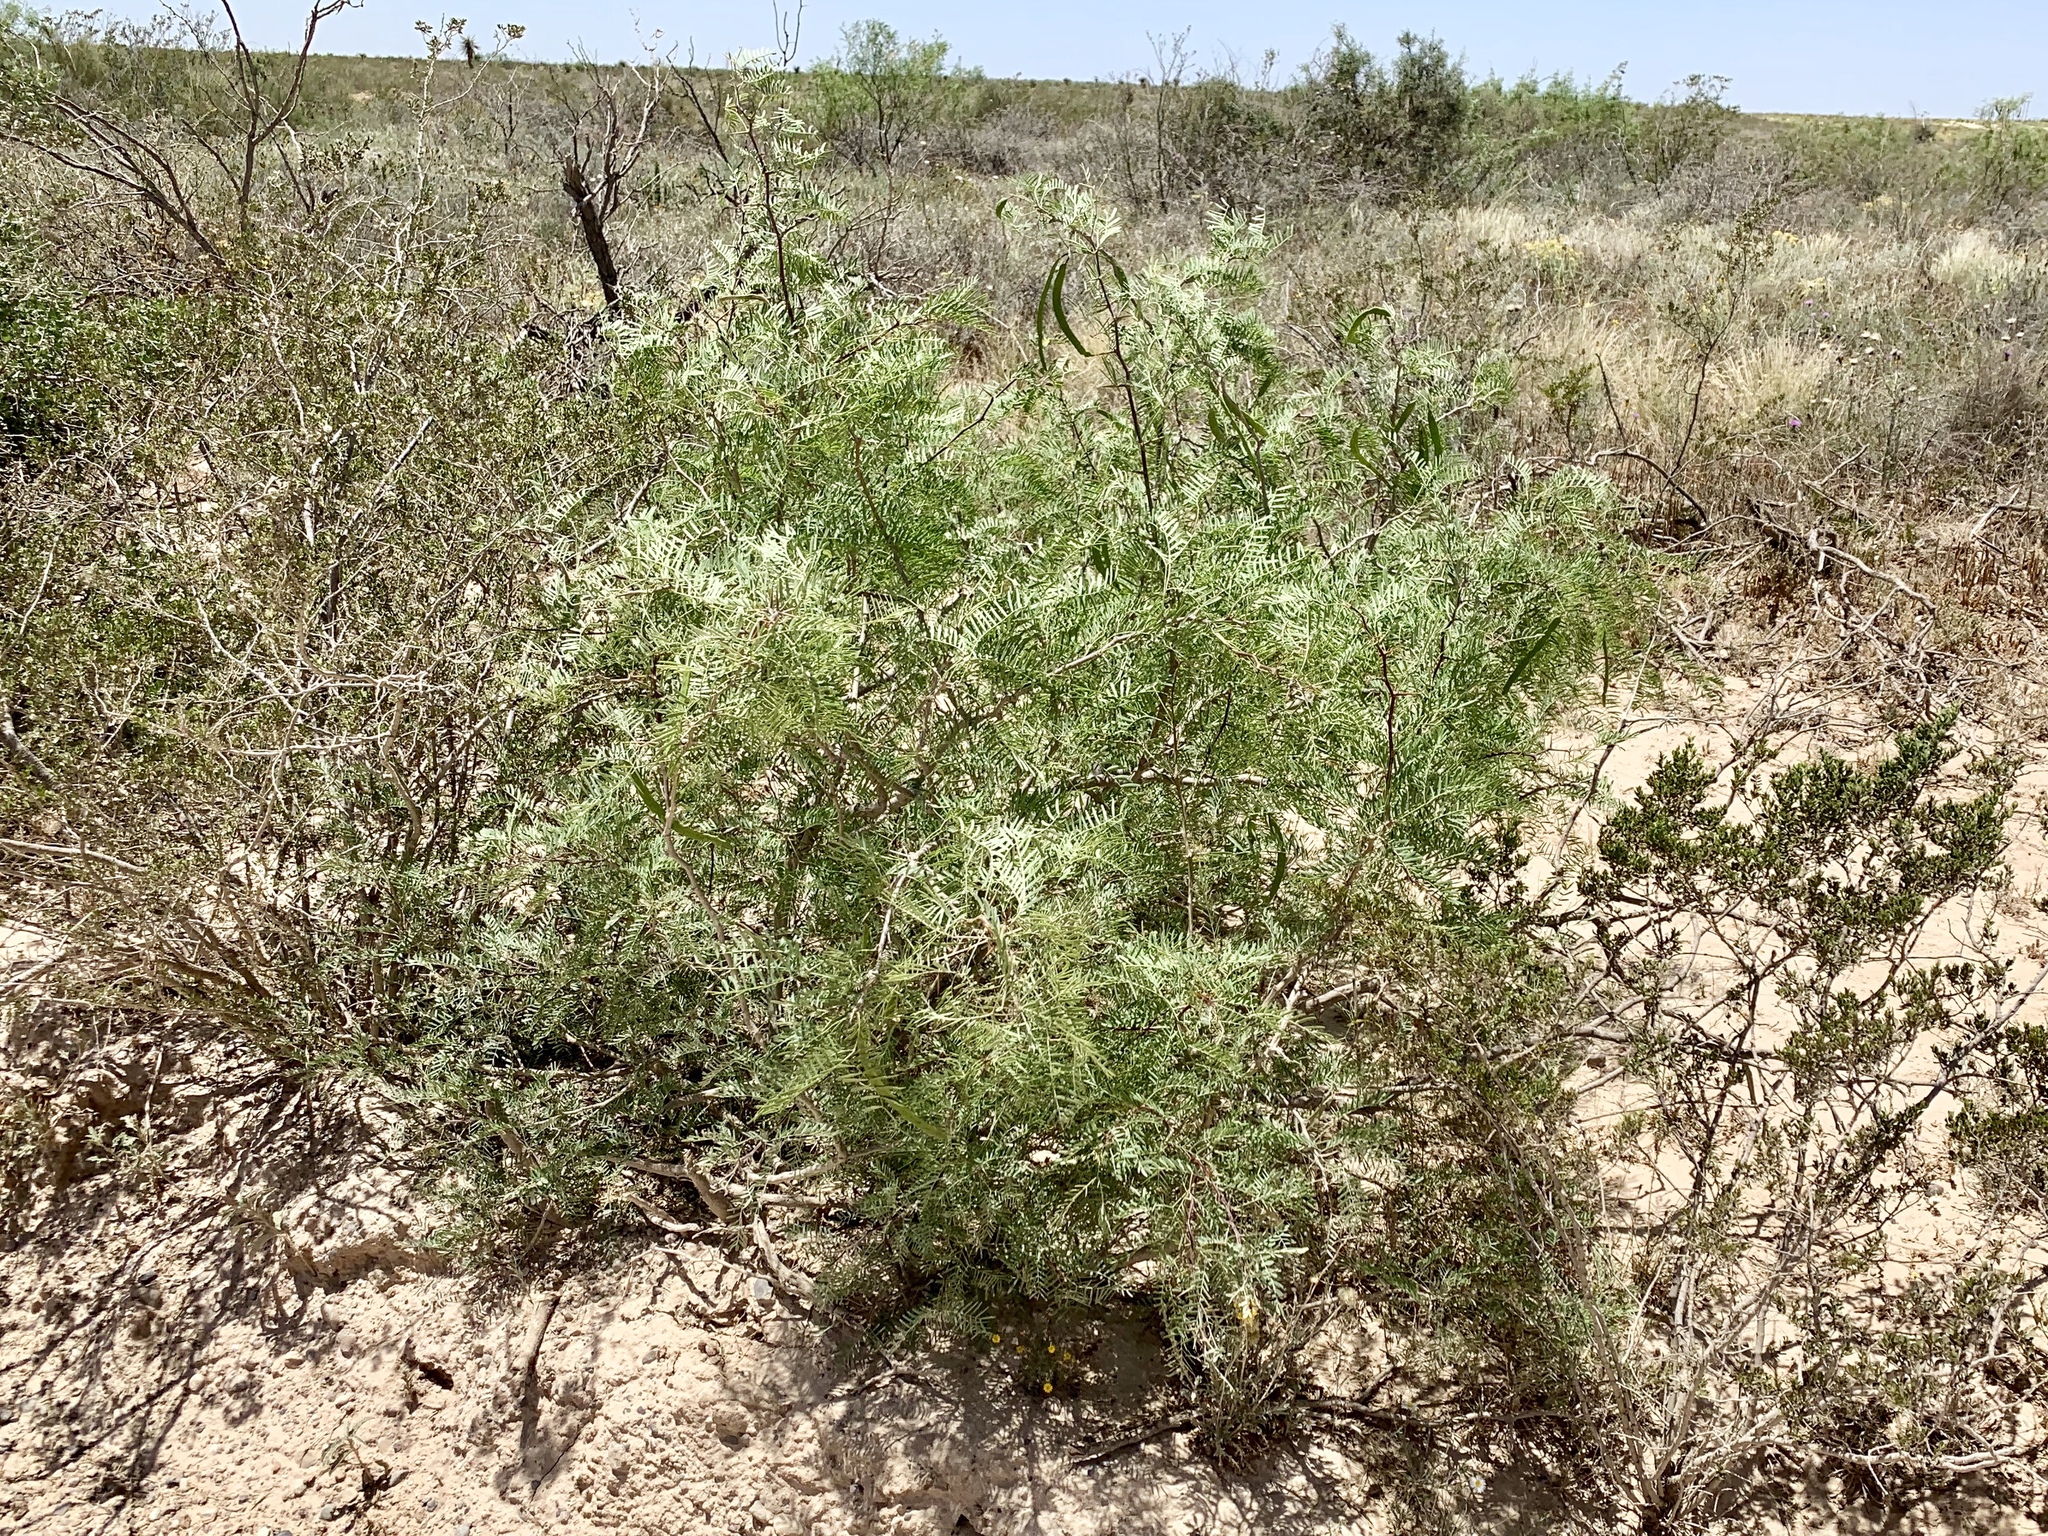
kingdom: Plantae
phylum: Tracheophyta
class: Magnoliopsida
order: Fabales
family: Fabaceae
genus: Prosopis
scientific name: Prosopis glandulosa
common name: Honey mesquite
